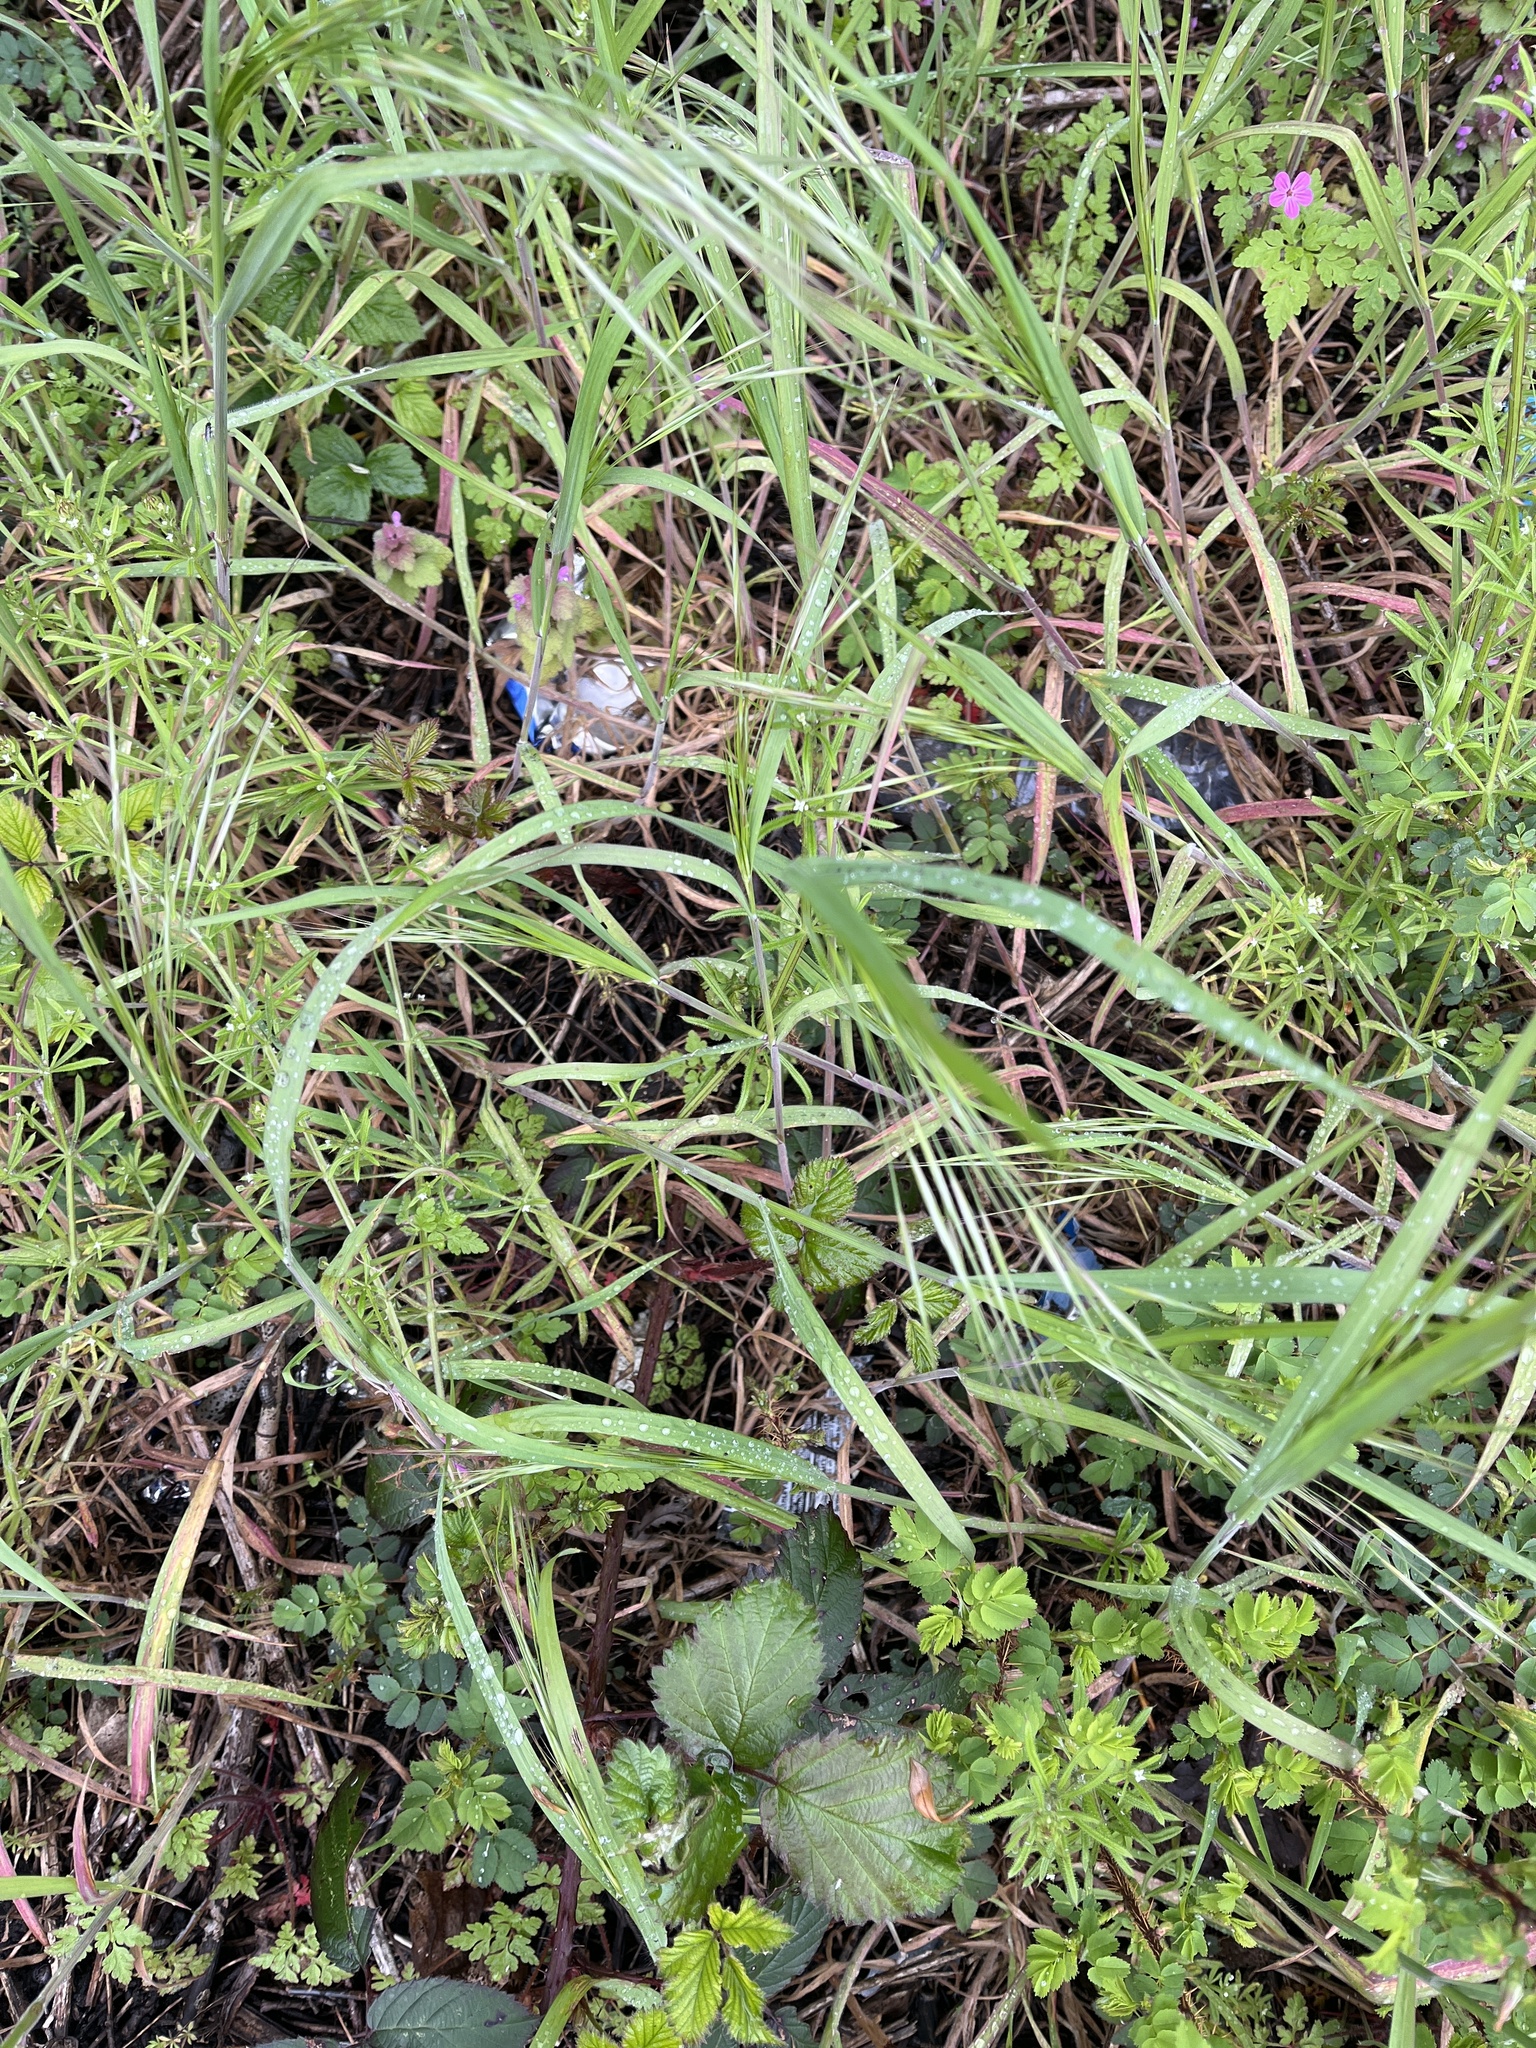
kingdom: Plantae
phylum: Tracheophyta
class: Liliopsida
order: Poales
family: Poaceae
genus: Bromus
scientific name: Bromus sterilis
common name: Poverty brome
